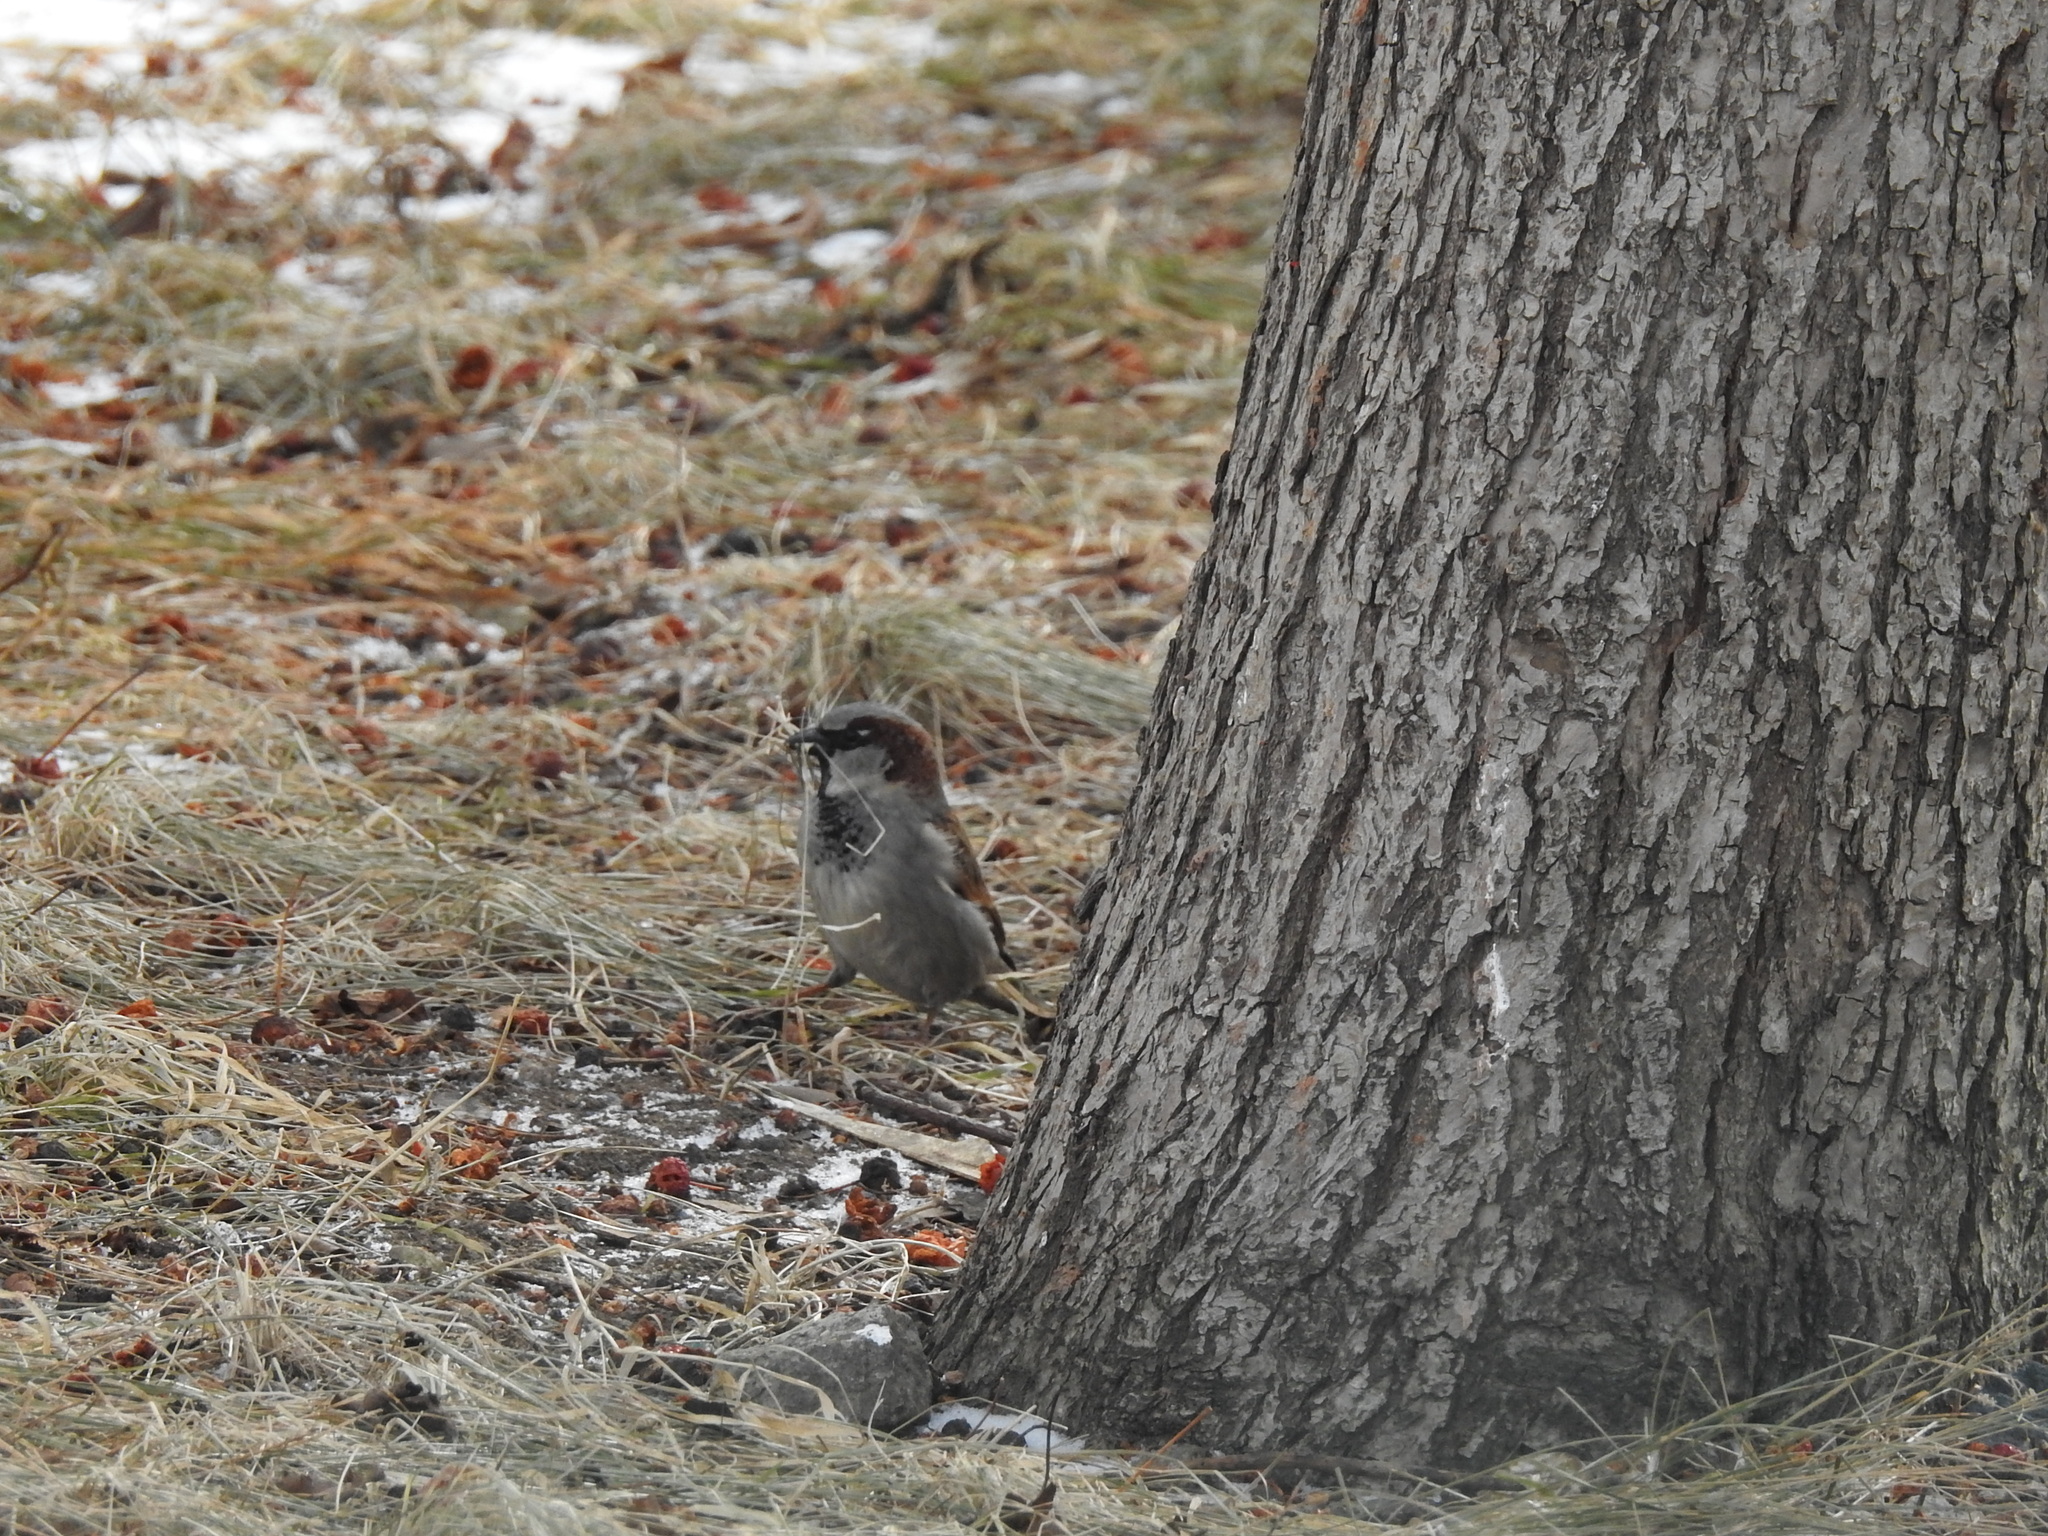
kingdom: Animalia
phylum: Chordata
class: Aves
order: Passeriformes
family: Passeridae
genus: Passer
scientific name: Passer domesticus
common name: House sparrow
